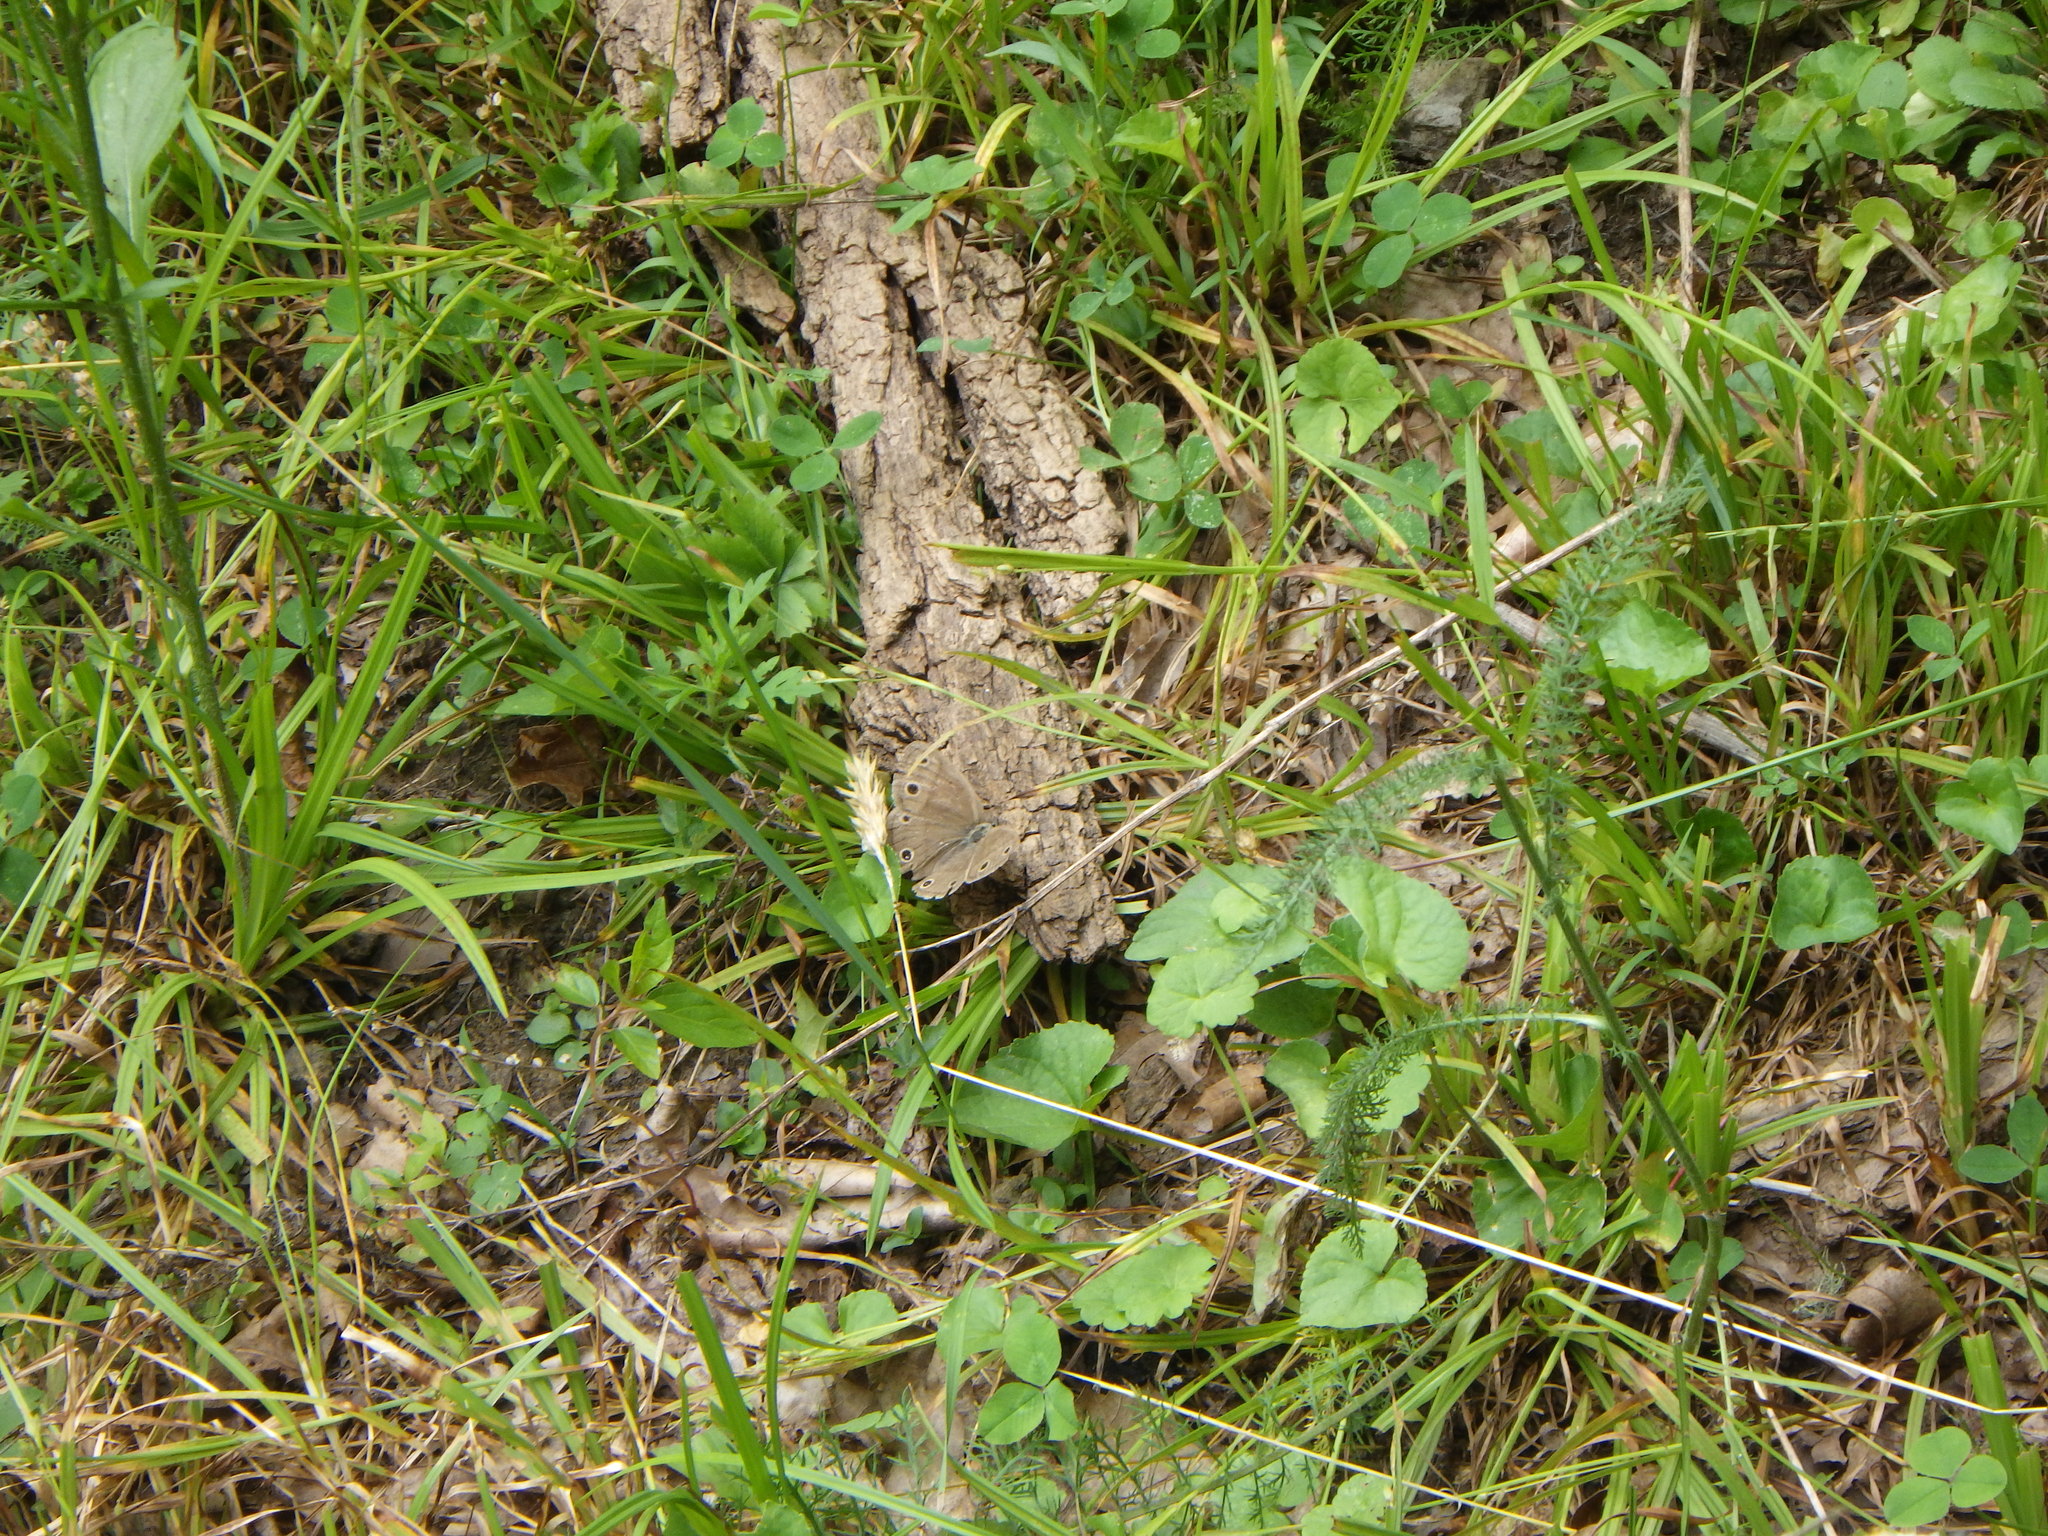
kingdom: Animalia
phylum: Arthropoda
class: Insecta
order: Lepidoptera
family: Nymphalidae
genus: Euptychia
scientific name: Euptychia cymela
